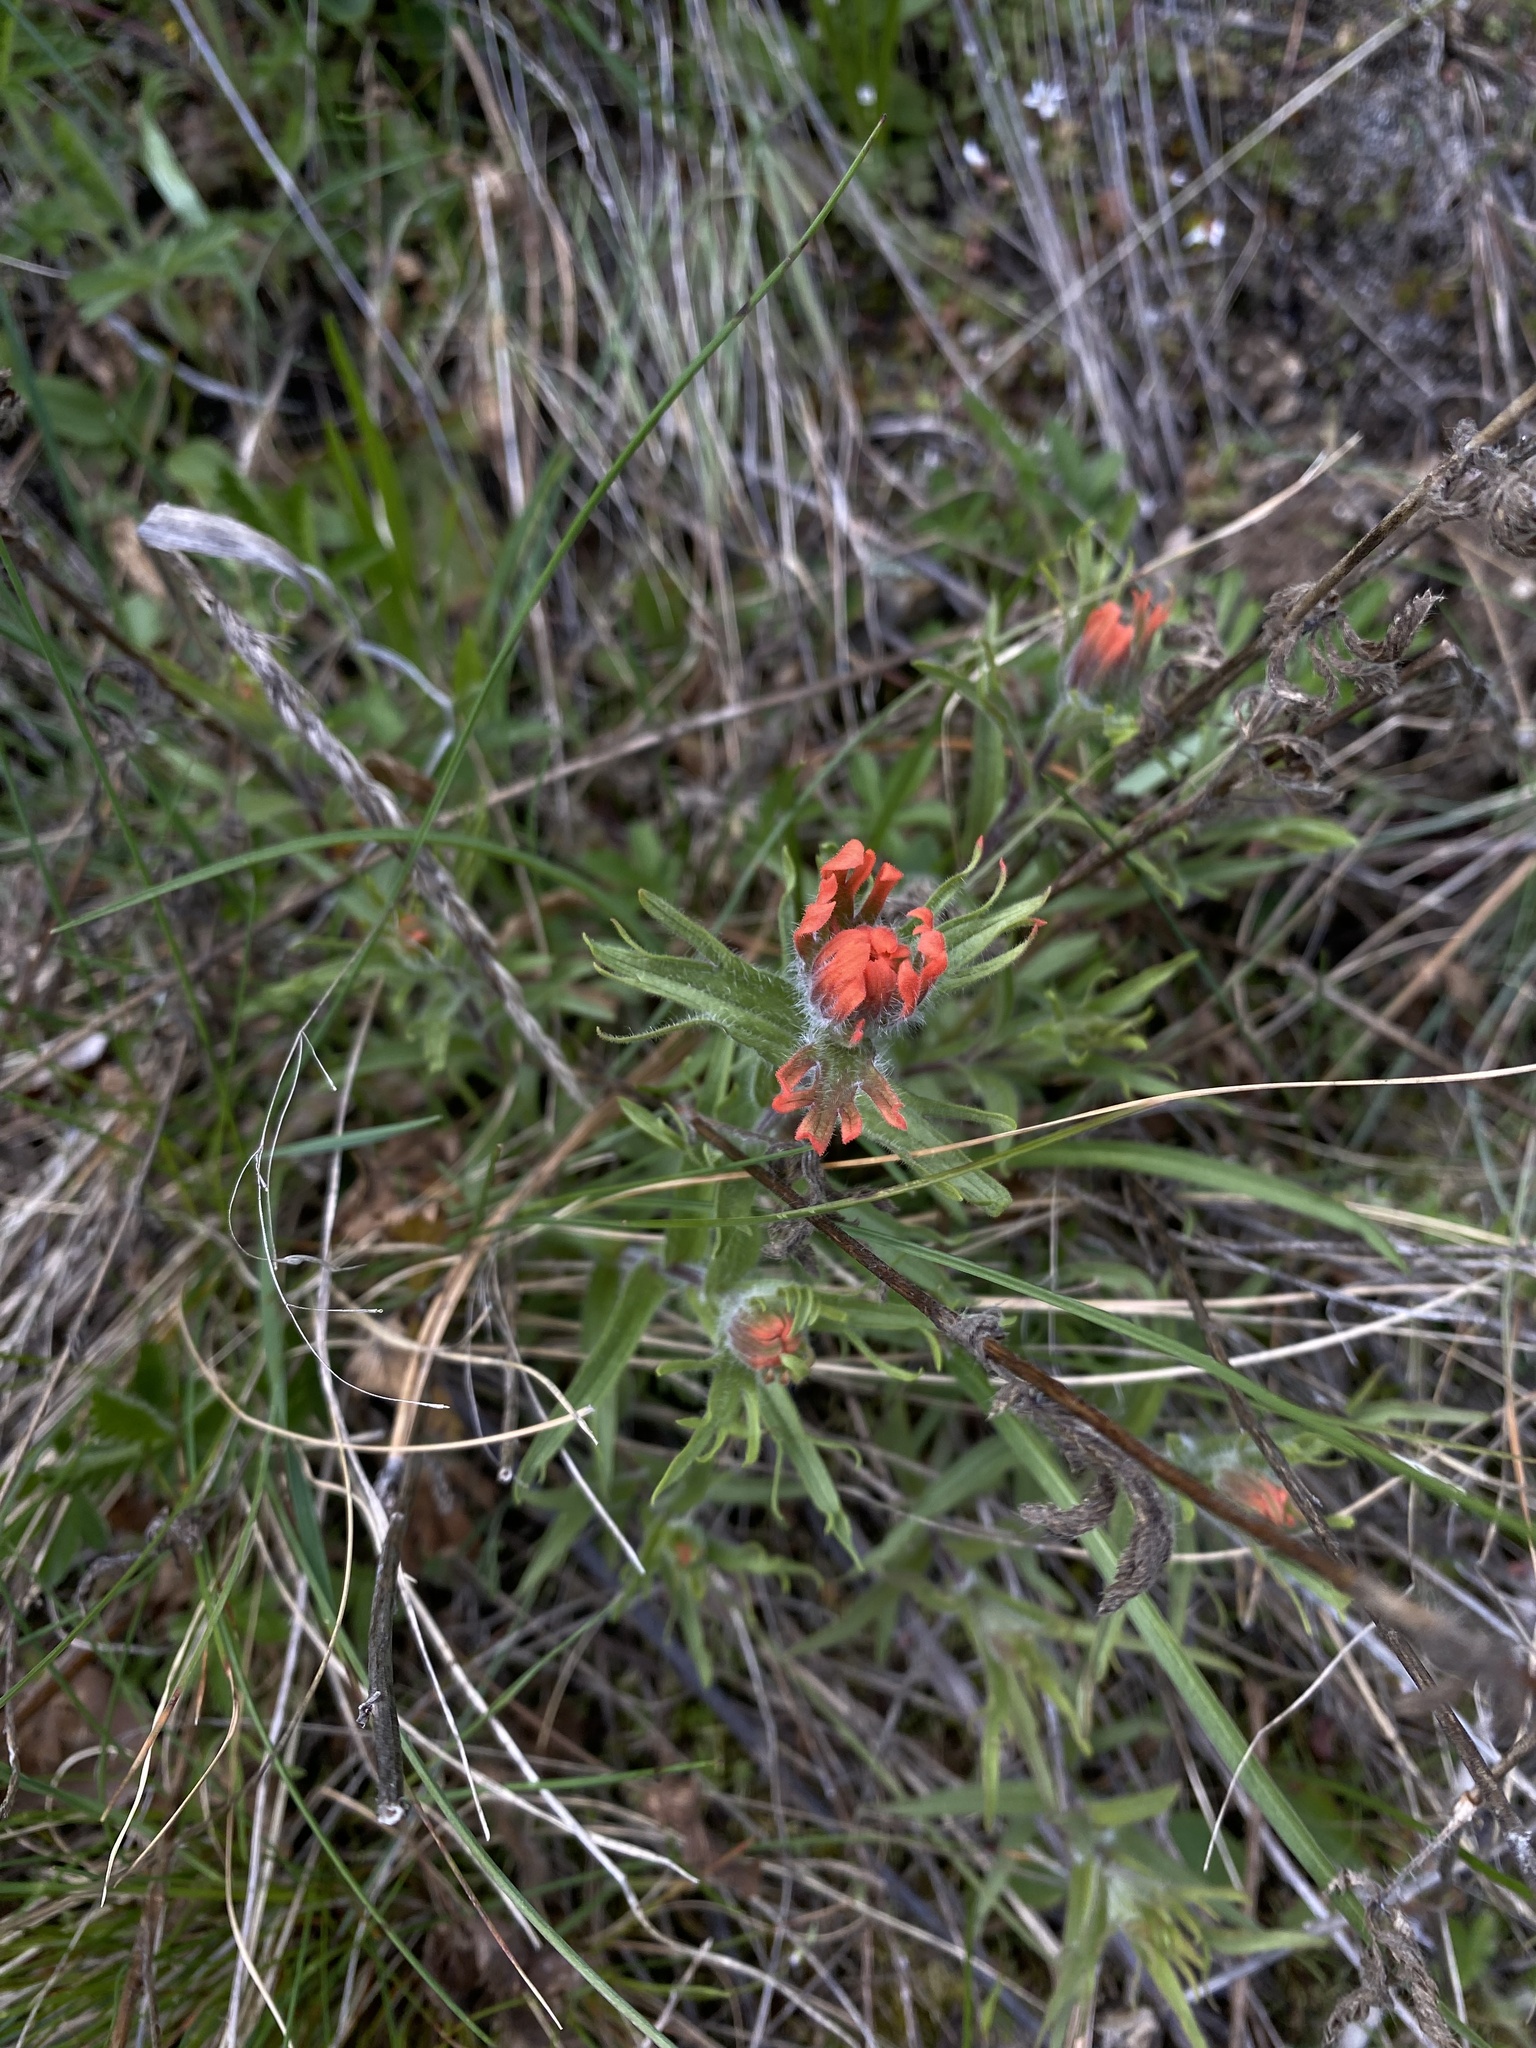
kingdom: Plantae
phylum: Tracheophyta
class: Magnoliopsida
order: Lamiales
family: Orobanchaceae
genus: Castilleja
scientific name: Castilleja hispida
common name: Bristly paintbrush
